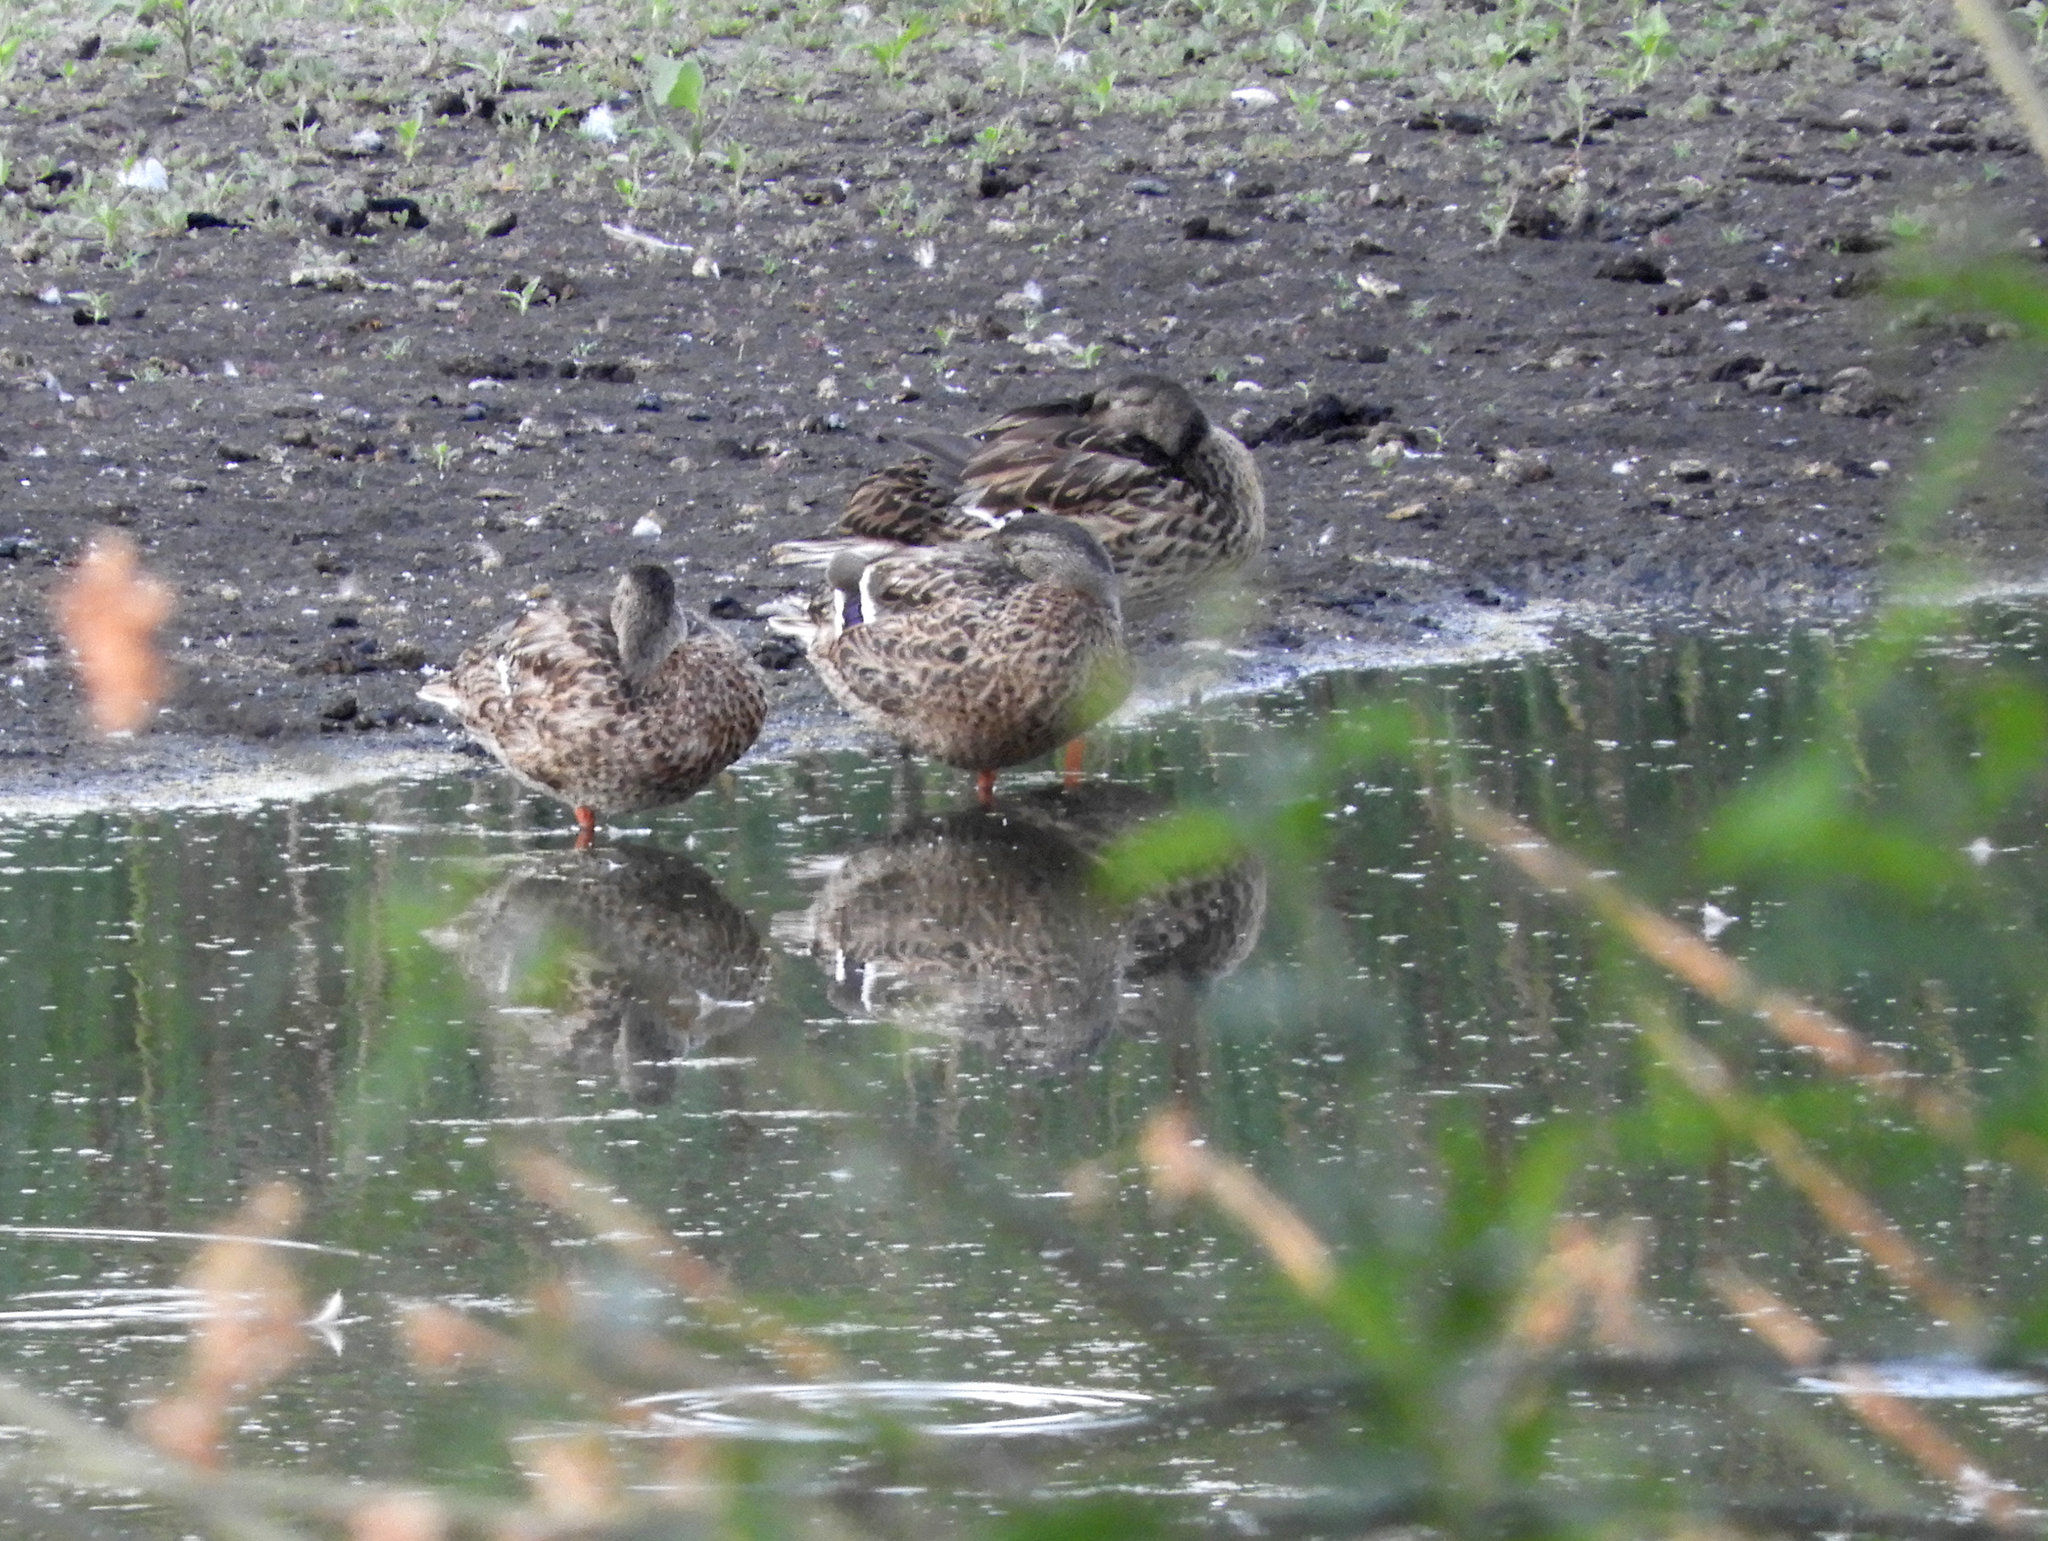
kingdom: Animalia
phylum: Chordata
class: Aves
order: Anseriformes
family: Anatidae
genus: Anas
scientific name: Anas platyrhynchos
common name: Mallard
